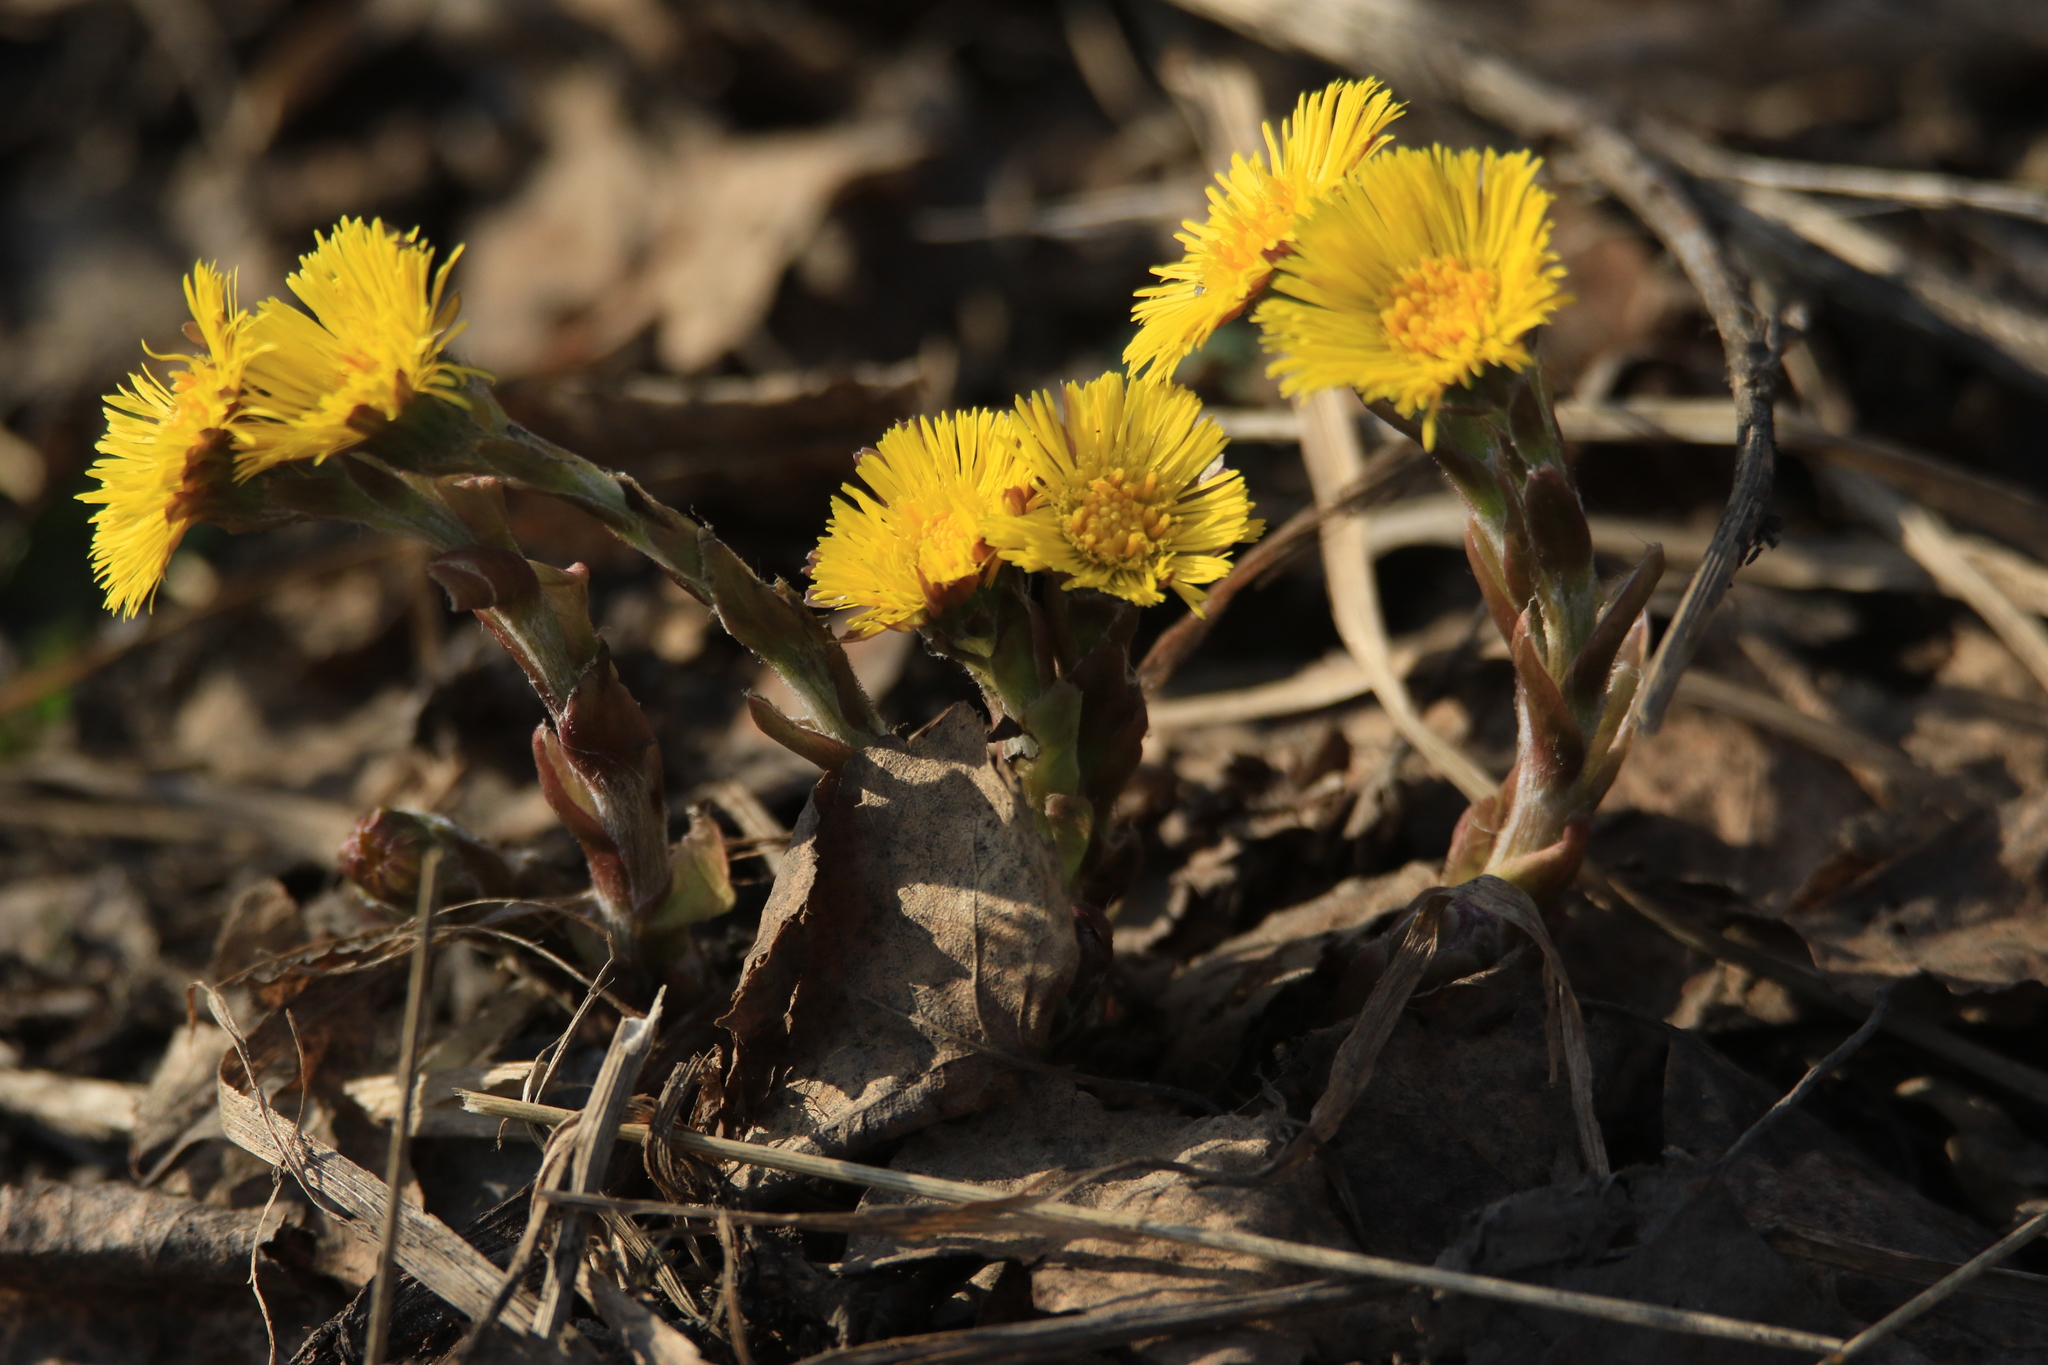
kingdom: Plantae
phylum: Tracheophyta
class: Magnoliopsida
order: Asterales
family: Asteraceae
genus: Tussilago
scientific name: Tussilago farfara
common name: Coltsfoot
